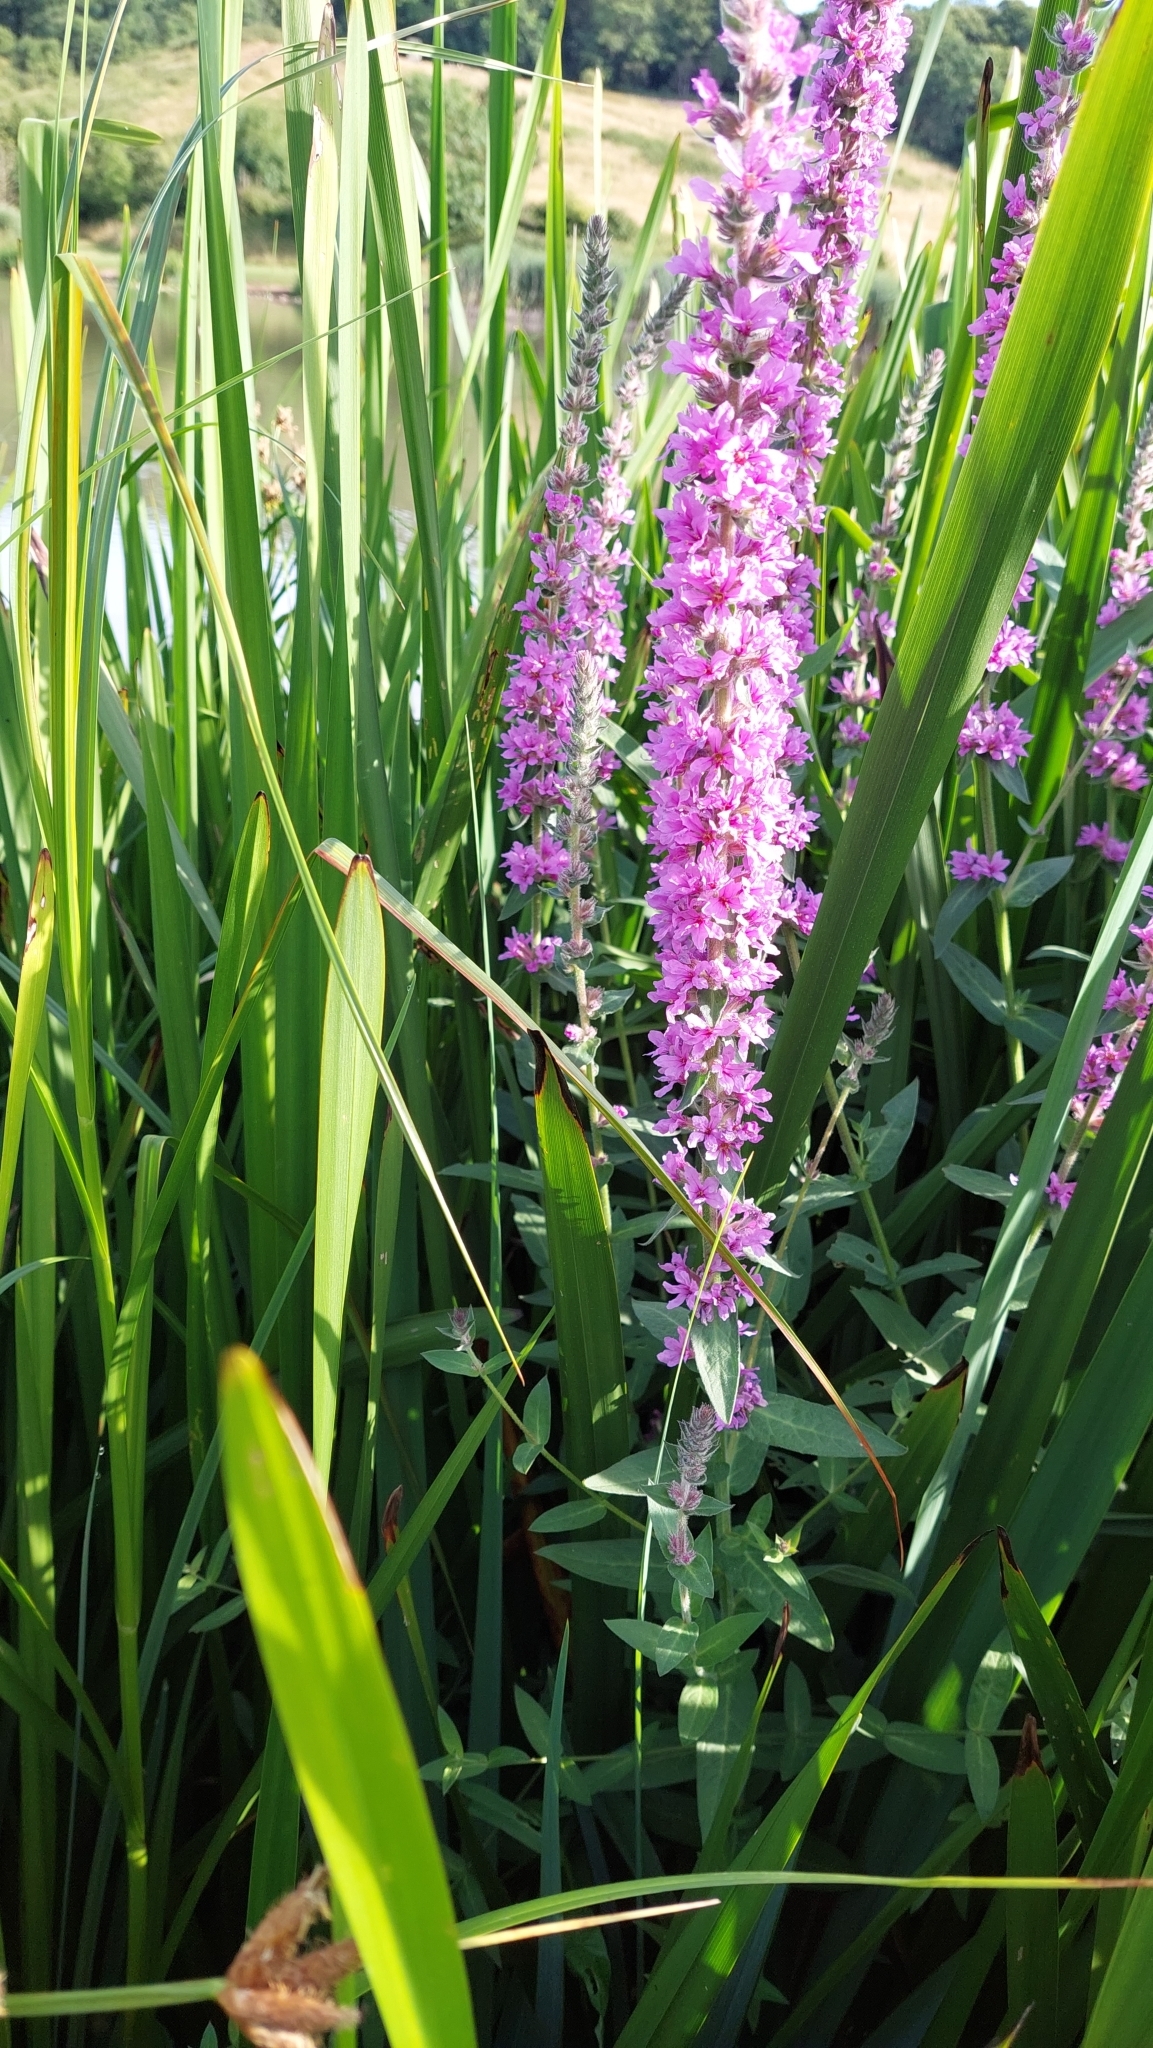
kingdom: Plantae
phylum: Tracheophyta
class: Magnoliopsida
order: Myrtales
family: Lythraceae
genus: Lythrum
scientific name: Lythrum salicaria
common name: Purple loosestrife
